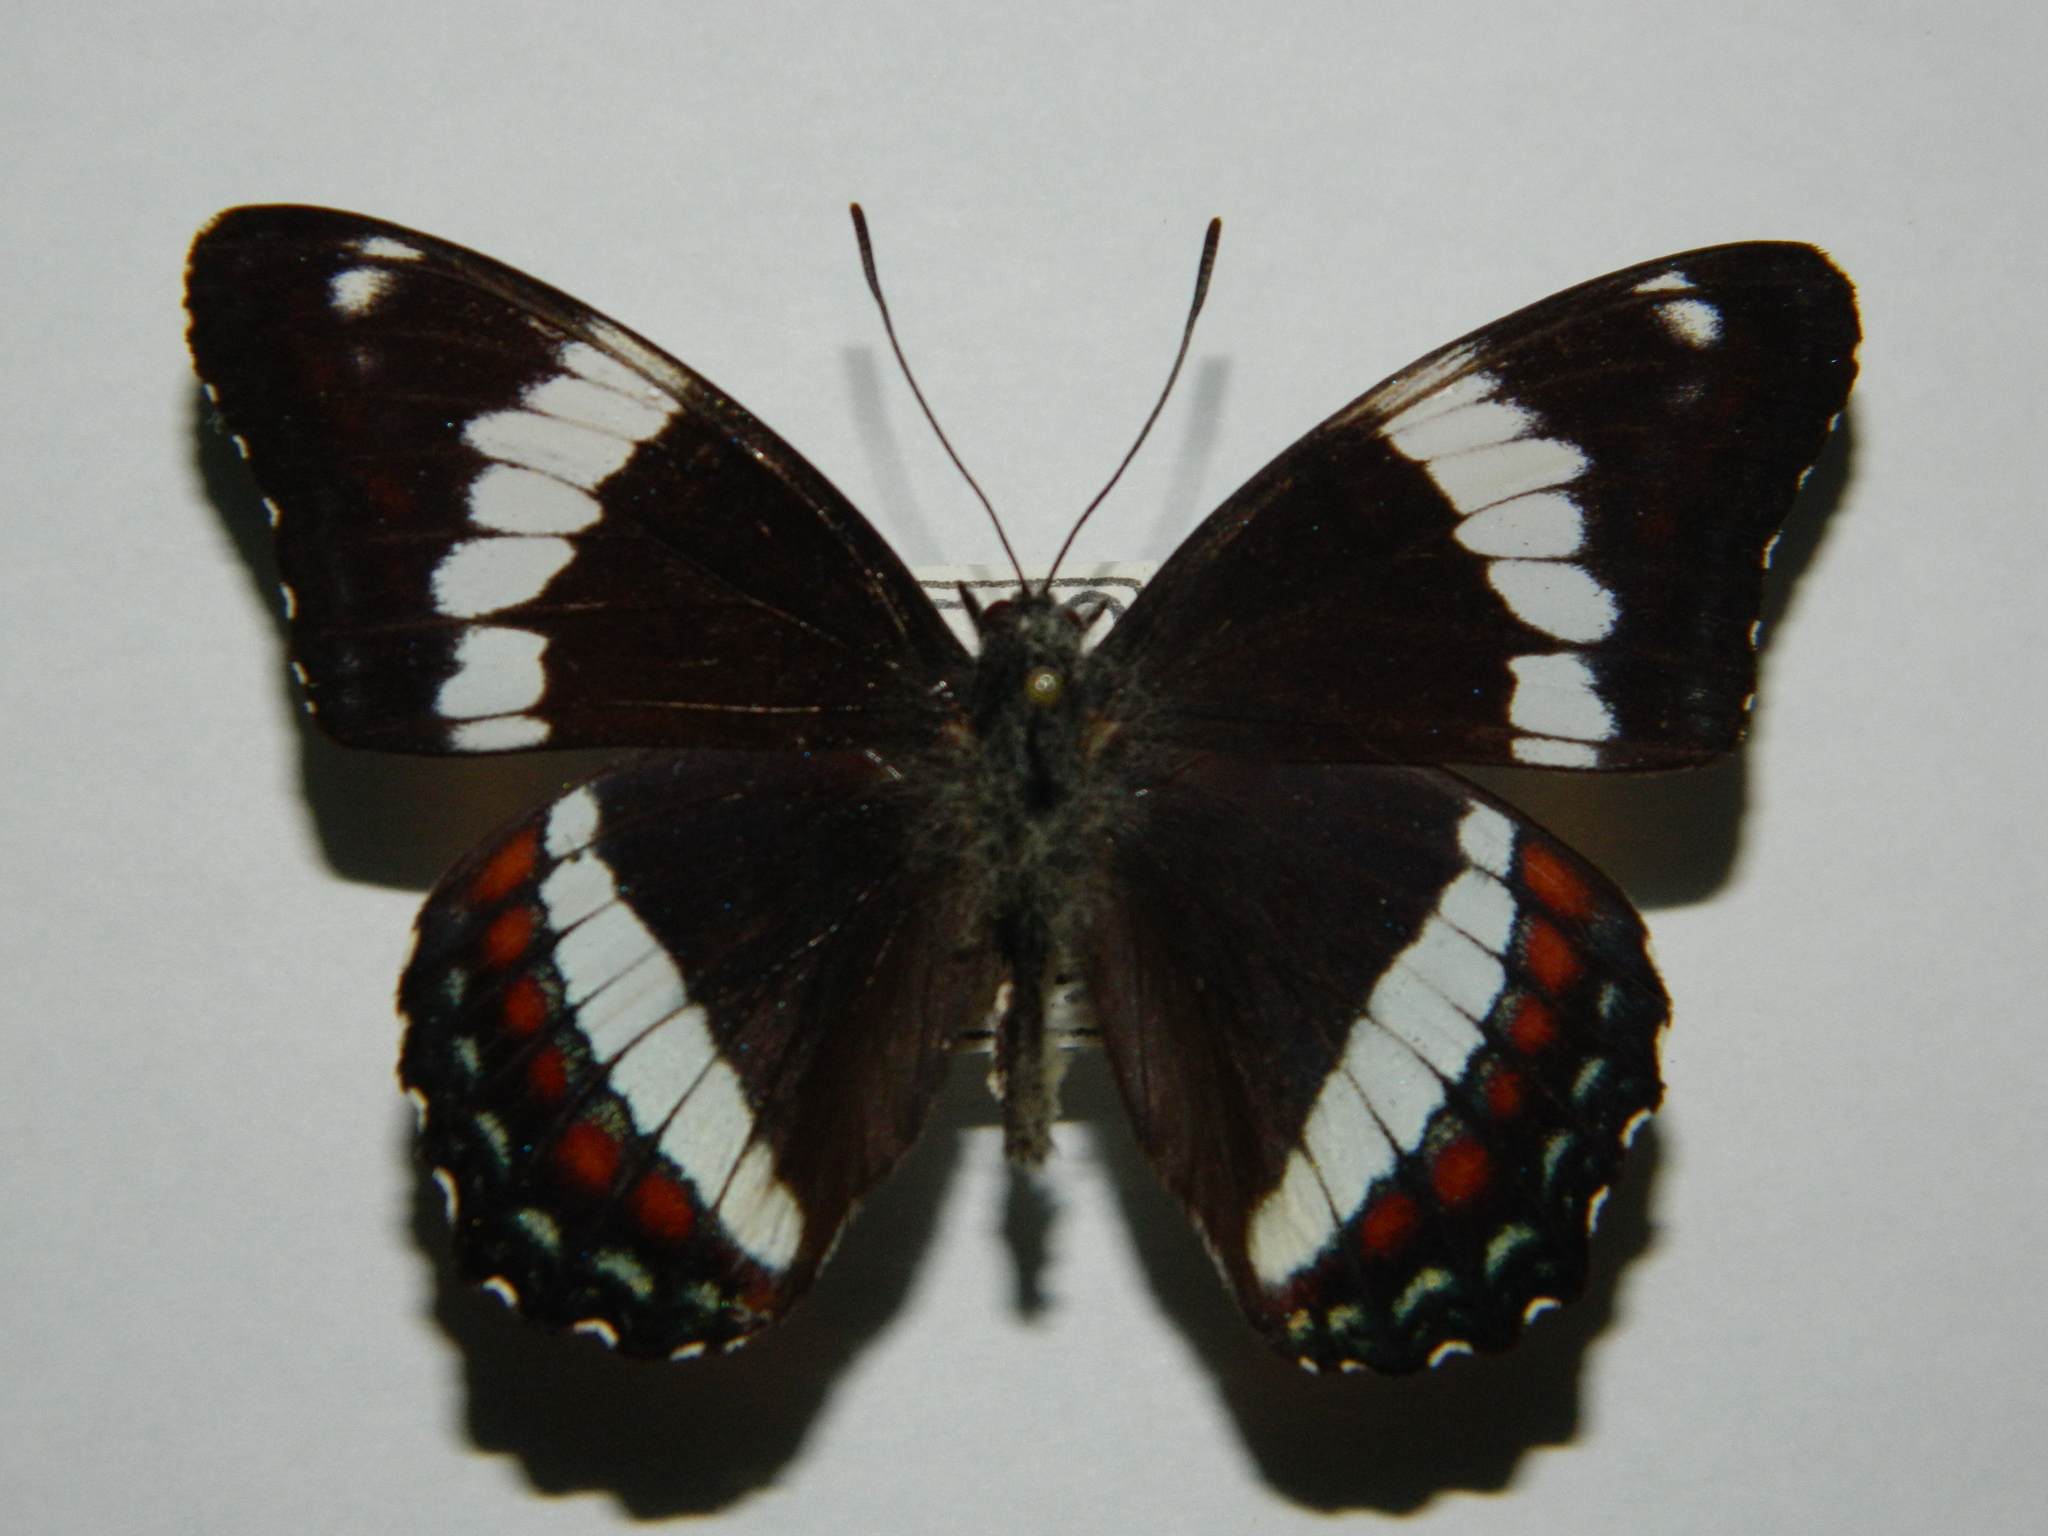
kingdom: Animalia
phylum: Arthropoda
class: Insecta
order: Lepidoptera
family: Nymphalidae
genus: Limenitis
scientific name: Limenitis arthemis
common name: Red-spotted admiral
